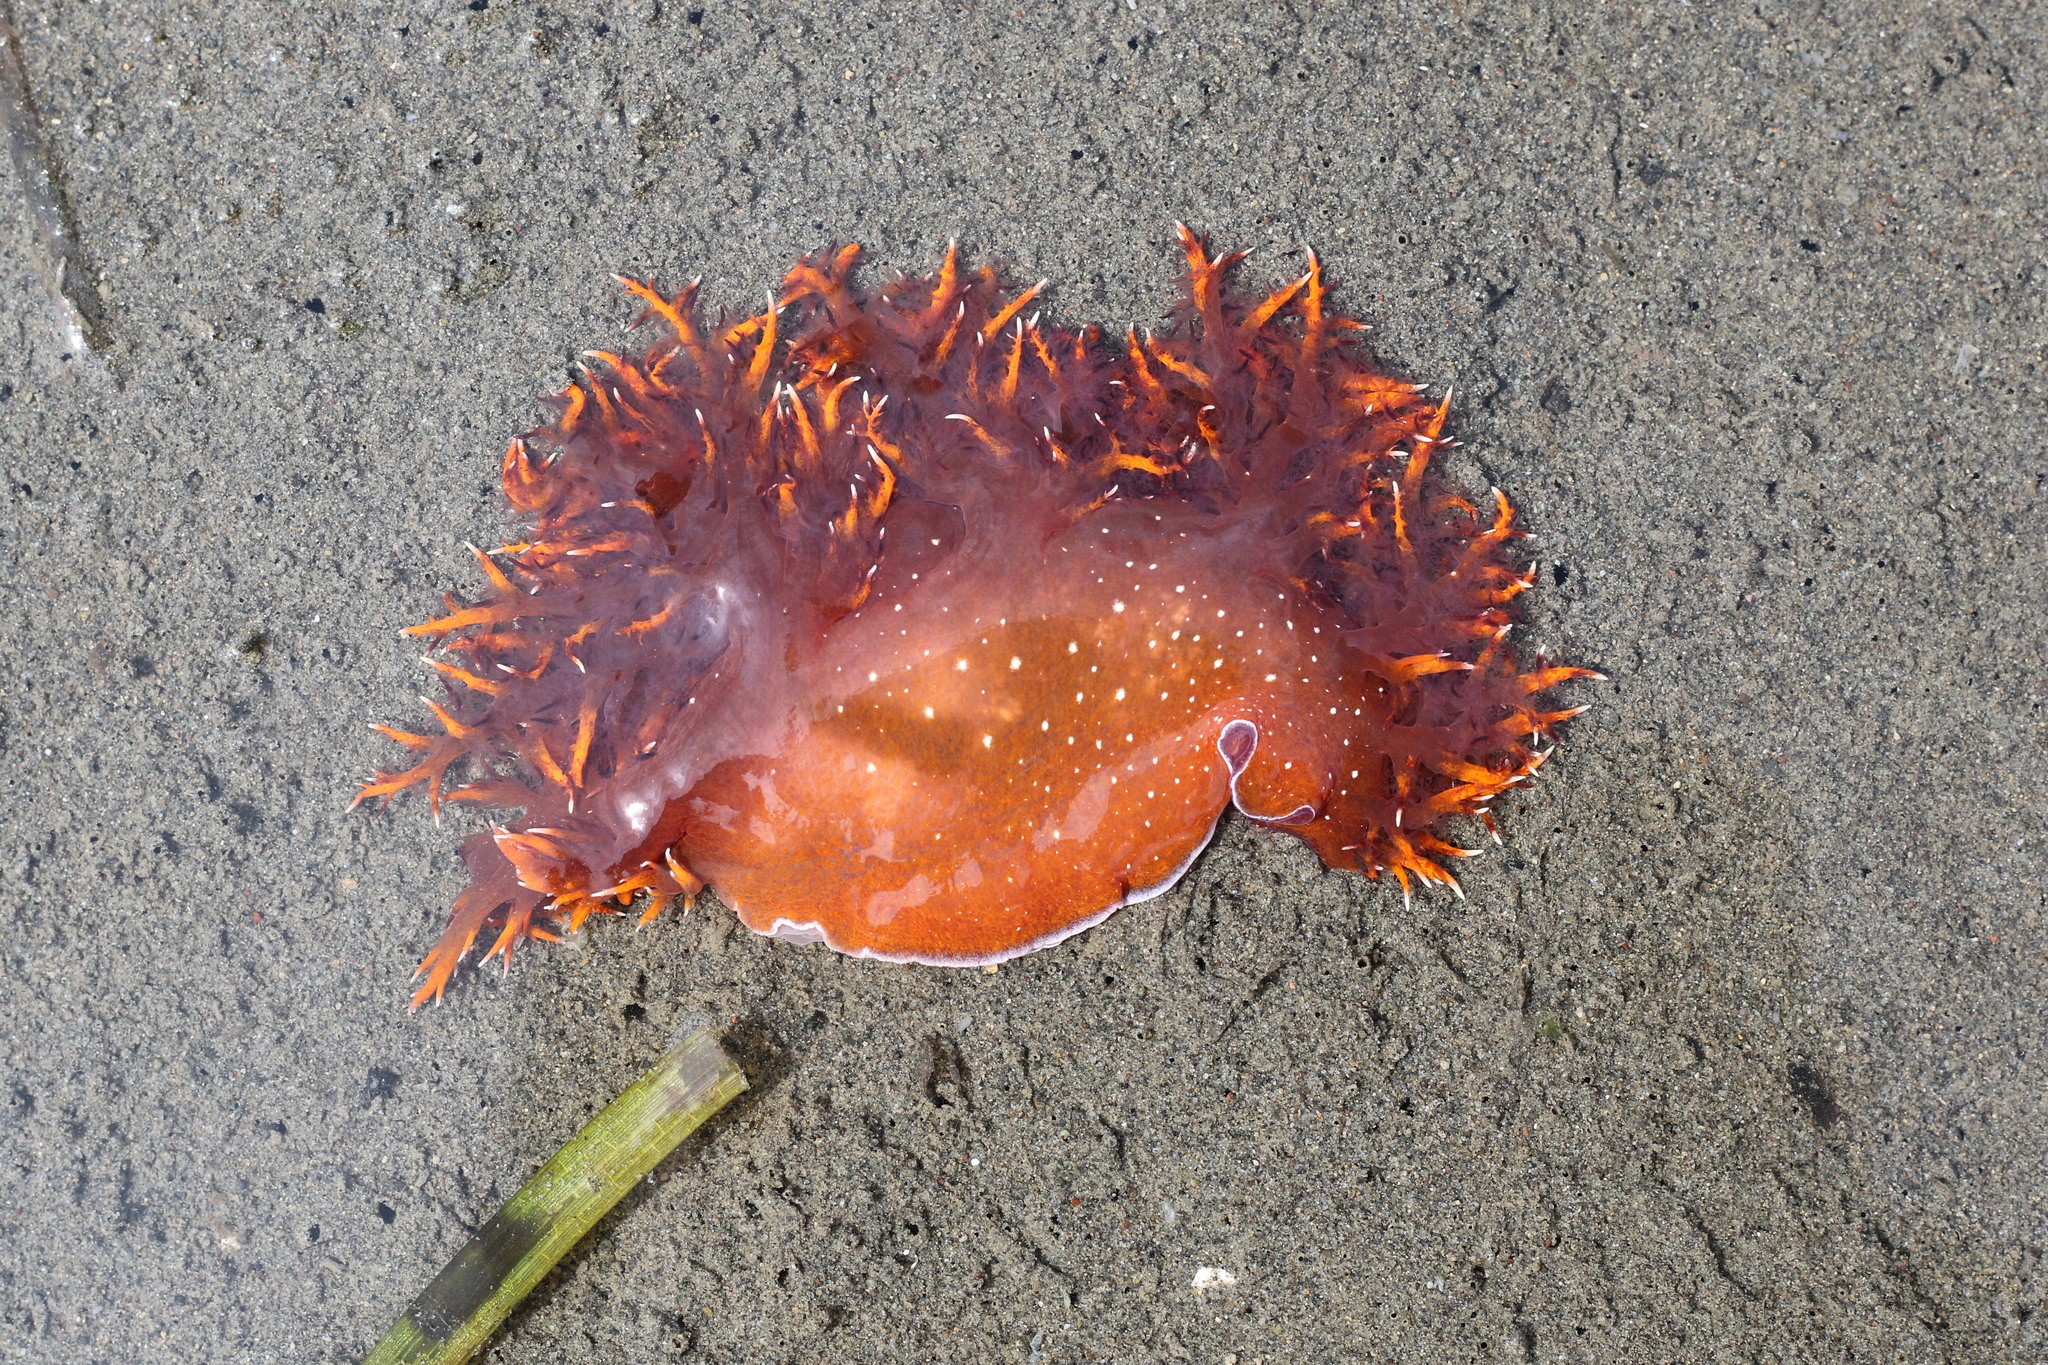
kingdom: Animalia
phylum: Mollusca
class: Gastropoda
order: Nudibranchia
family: Dendronotidae
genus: Dendronotus
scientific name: Dendronotus iris
